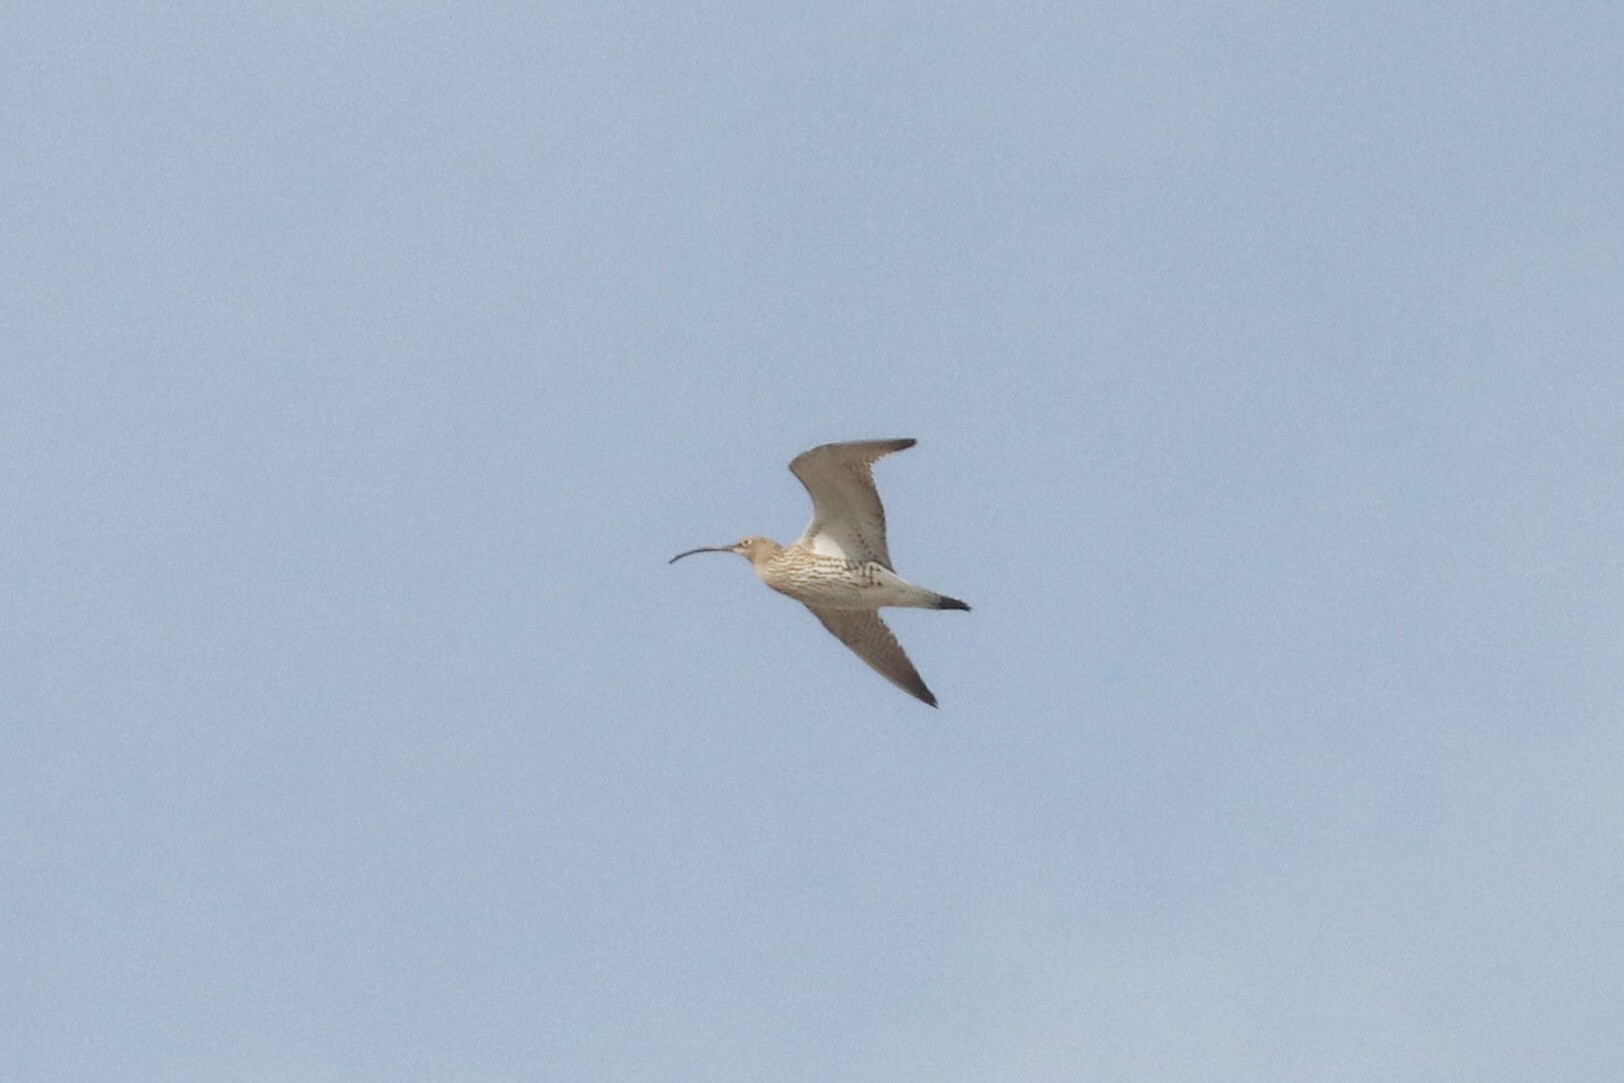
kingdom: Animalia
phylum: Chordata
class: Aves
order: Charadriiformes
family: Scolopacidae
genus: Numenius
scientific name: Numenius arquata
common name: Eurasian curlew
